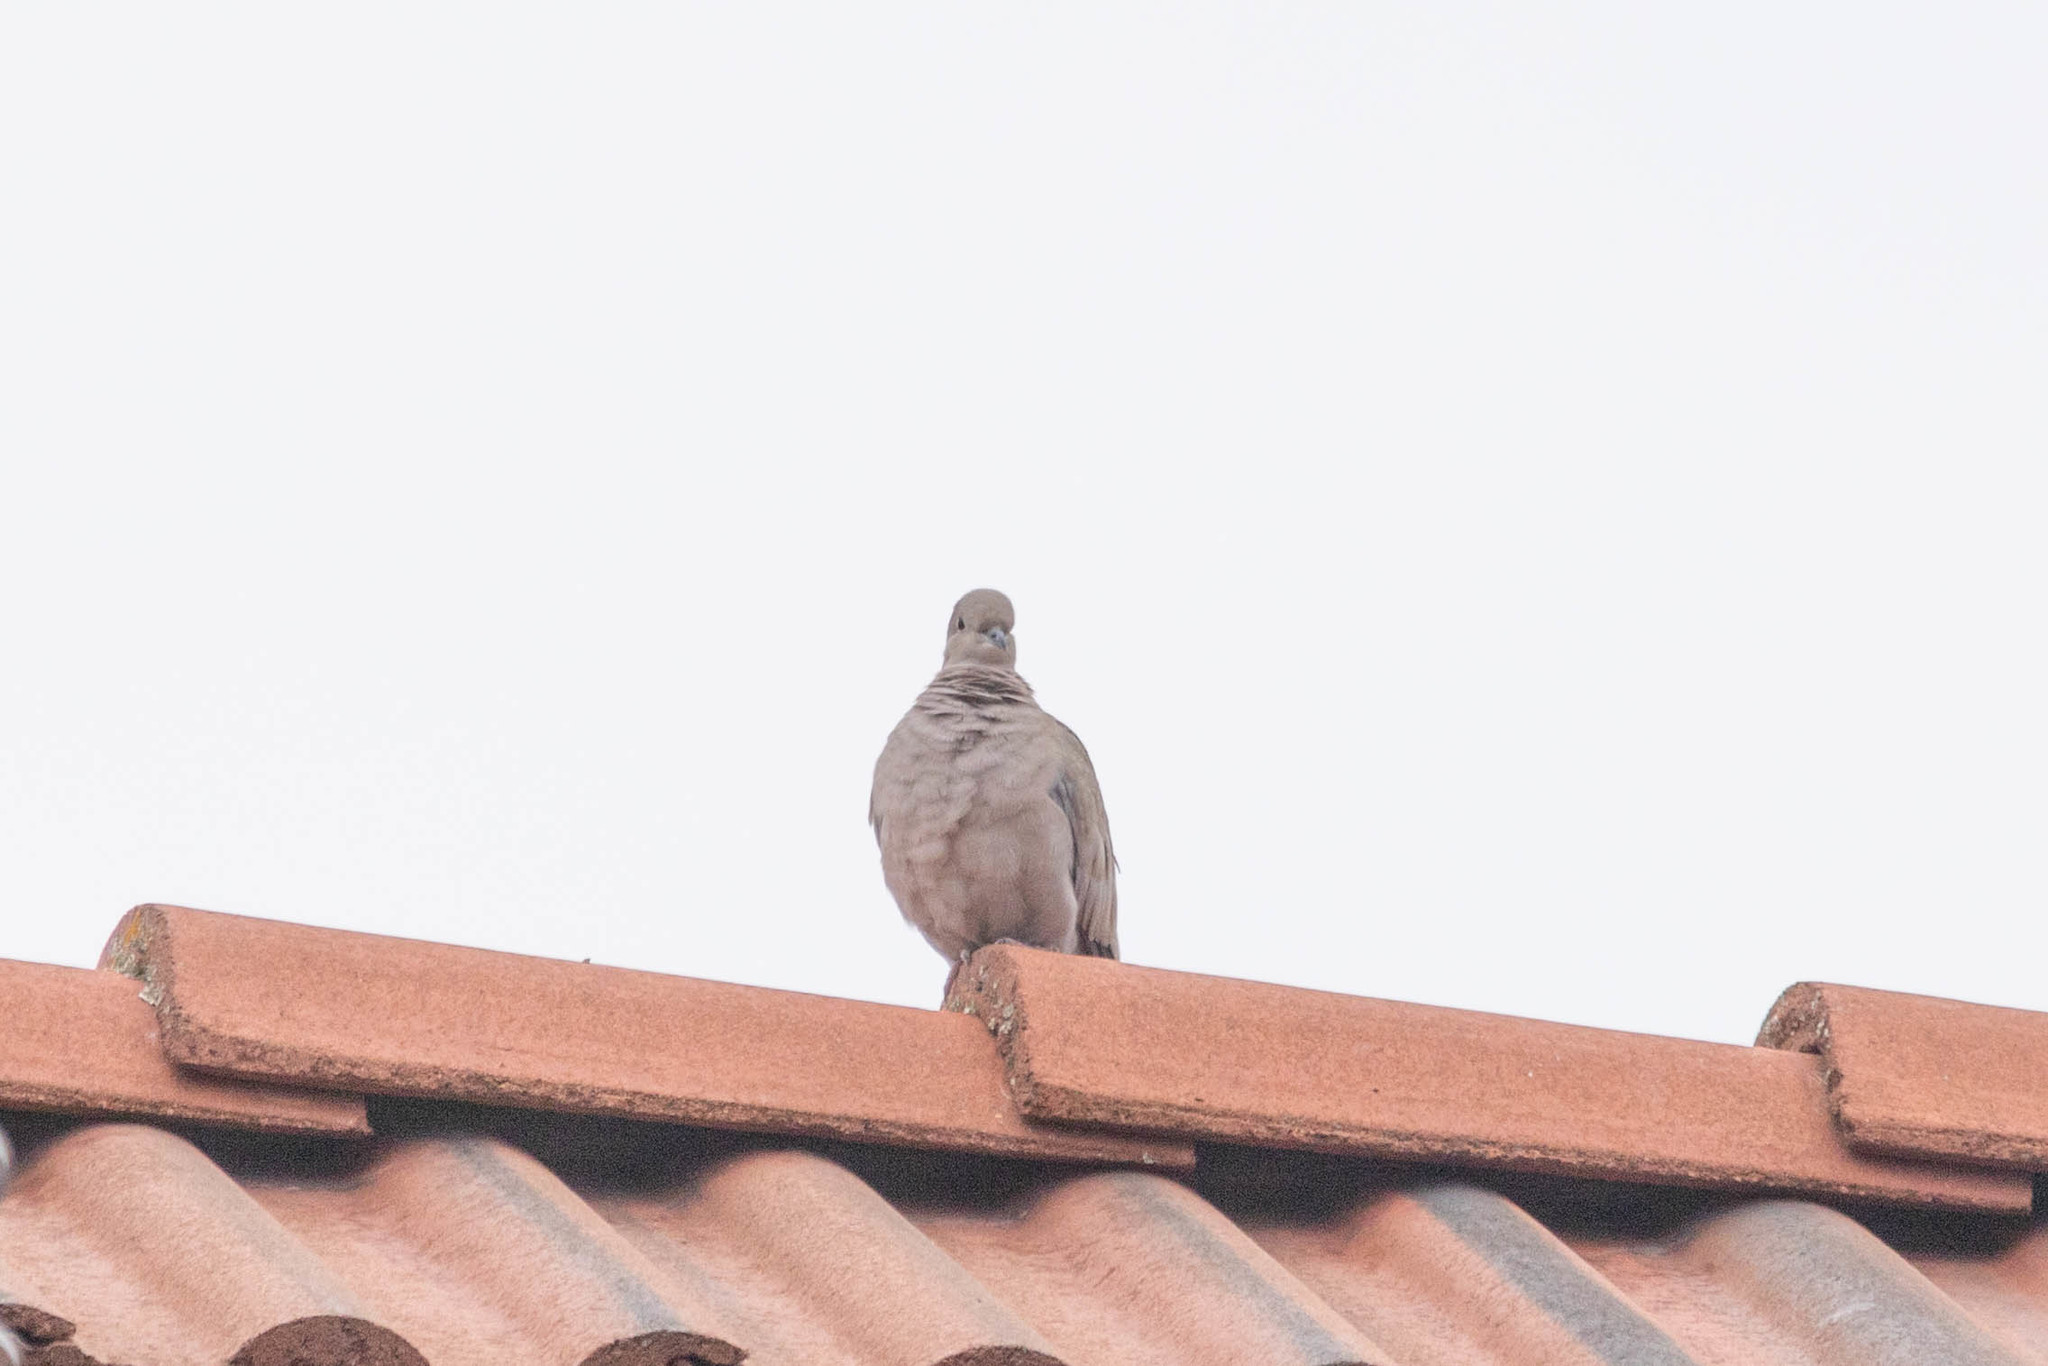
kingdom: Animalia
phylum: Chordata
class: Aves
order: Columbiformes
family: Columbidae
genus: Zenaida
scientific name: Zenaida macroura
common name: Mourning dove
